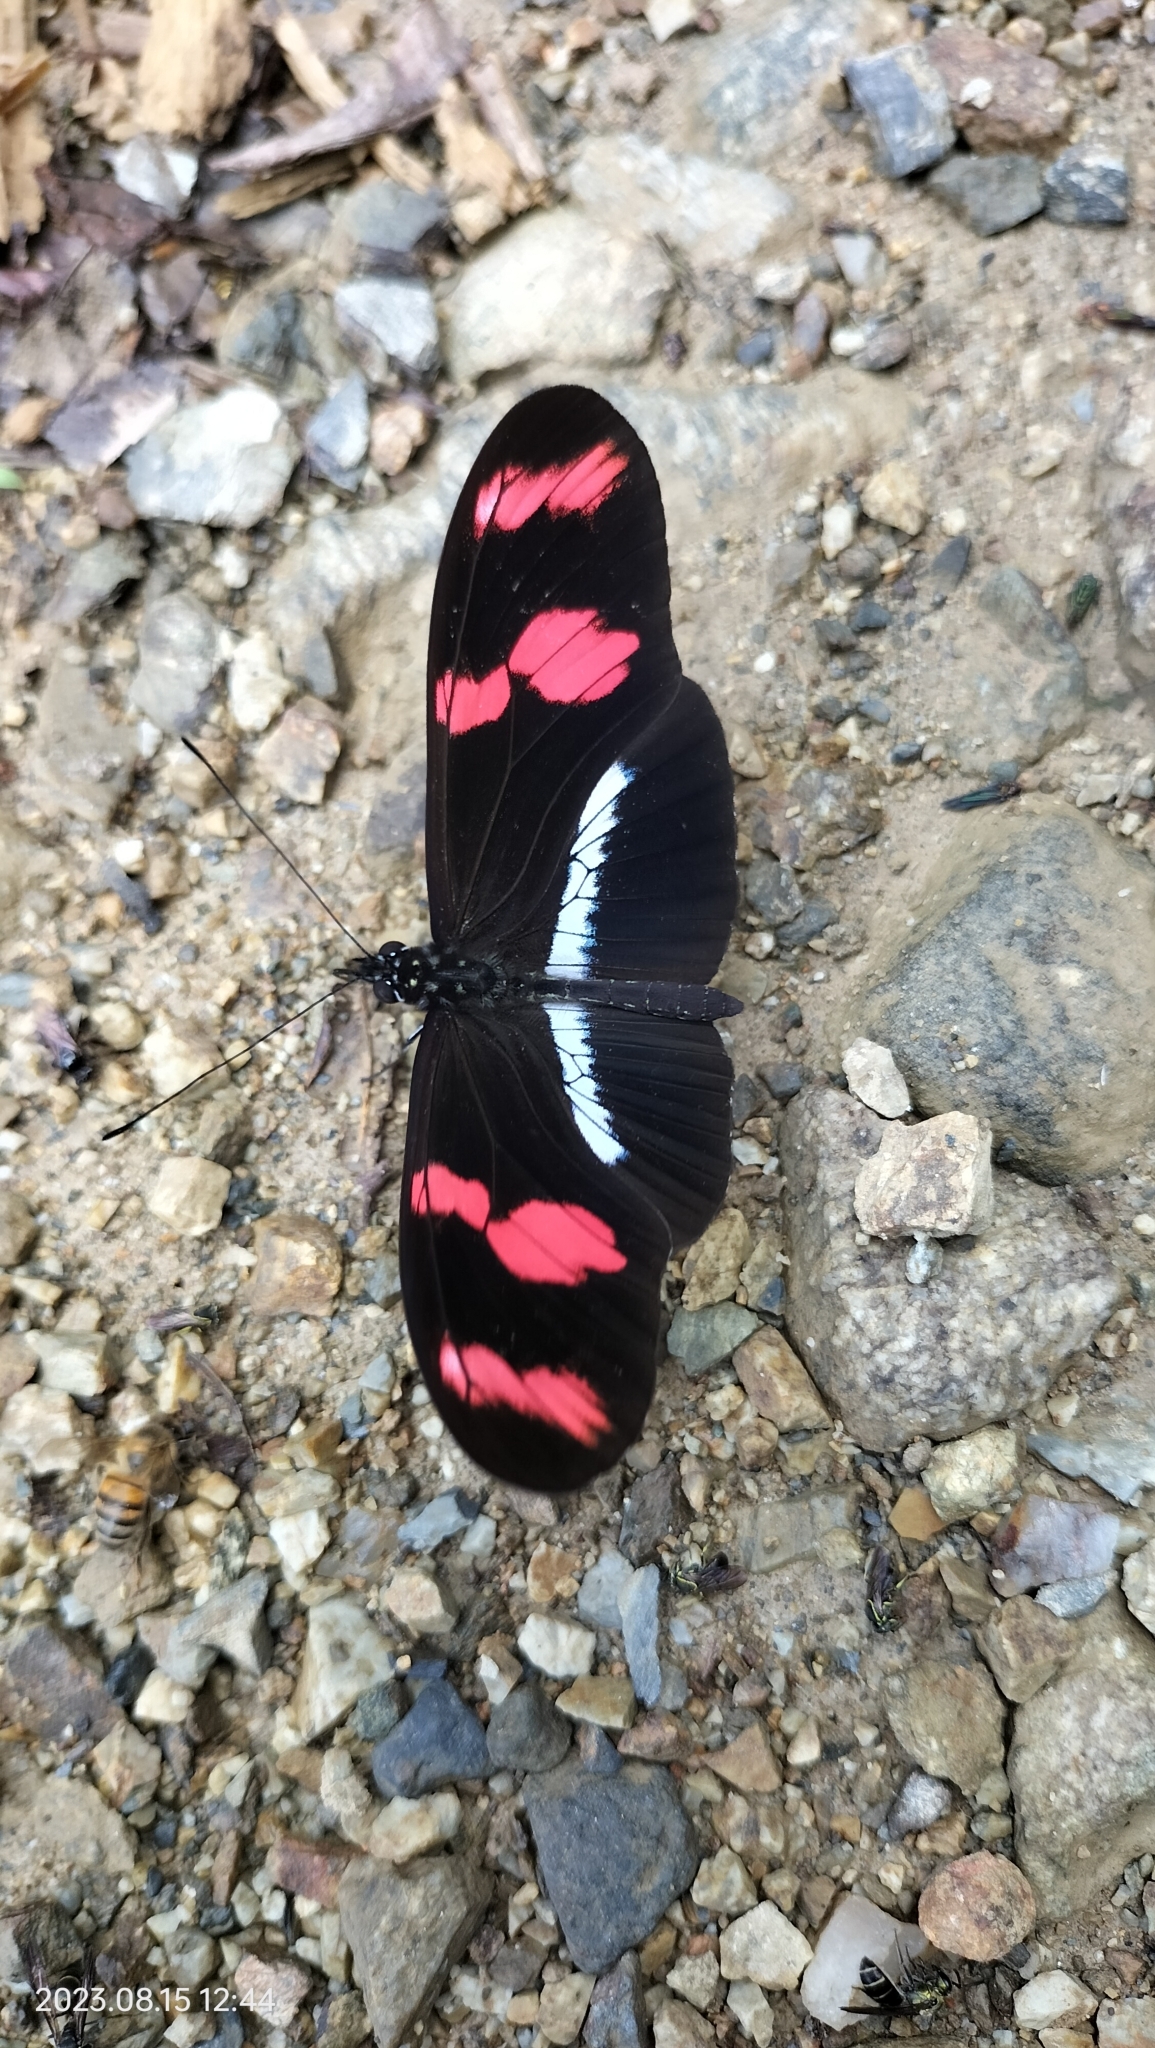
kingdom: Animalia
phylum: Arthropoda
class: Insecta
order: Lepidoptera
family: Nymphalidae
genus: Heliconius
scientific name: Heliconius telesiphe
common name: Telesiphe longwing
